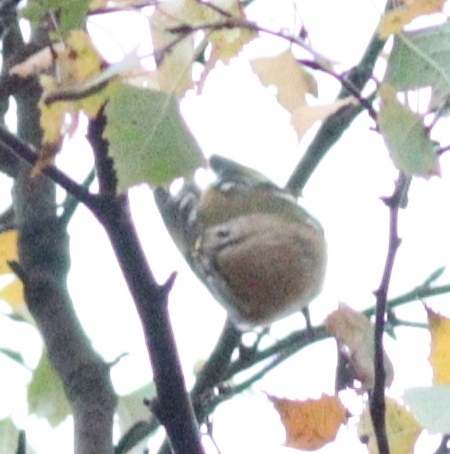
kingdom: Animalia
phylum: Chordata
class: Aves
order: Passeriformes
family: Regulidae
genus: Regulus
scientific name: Regulus regulus
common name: Goldcrest
